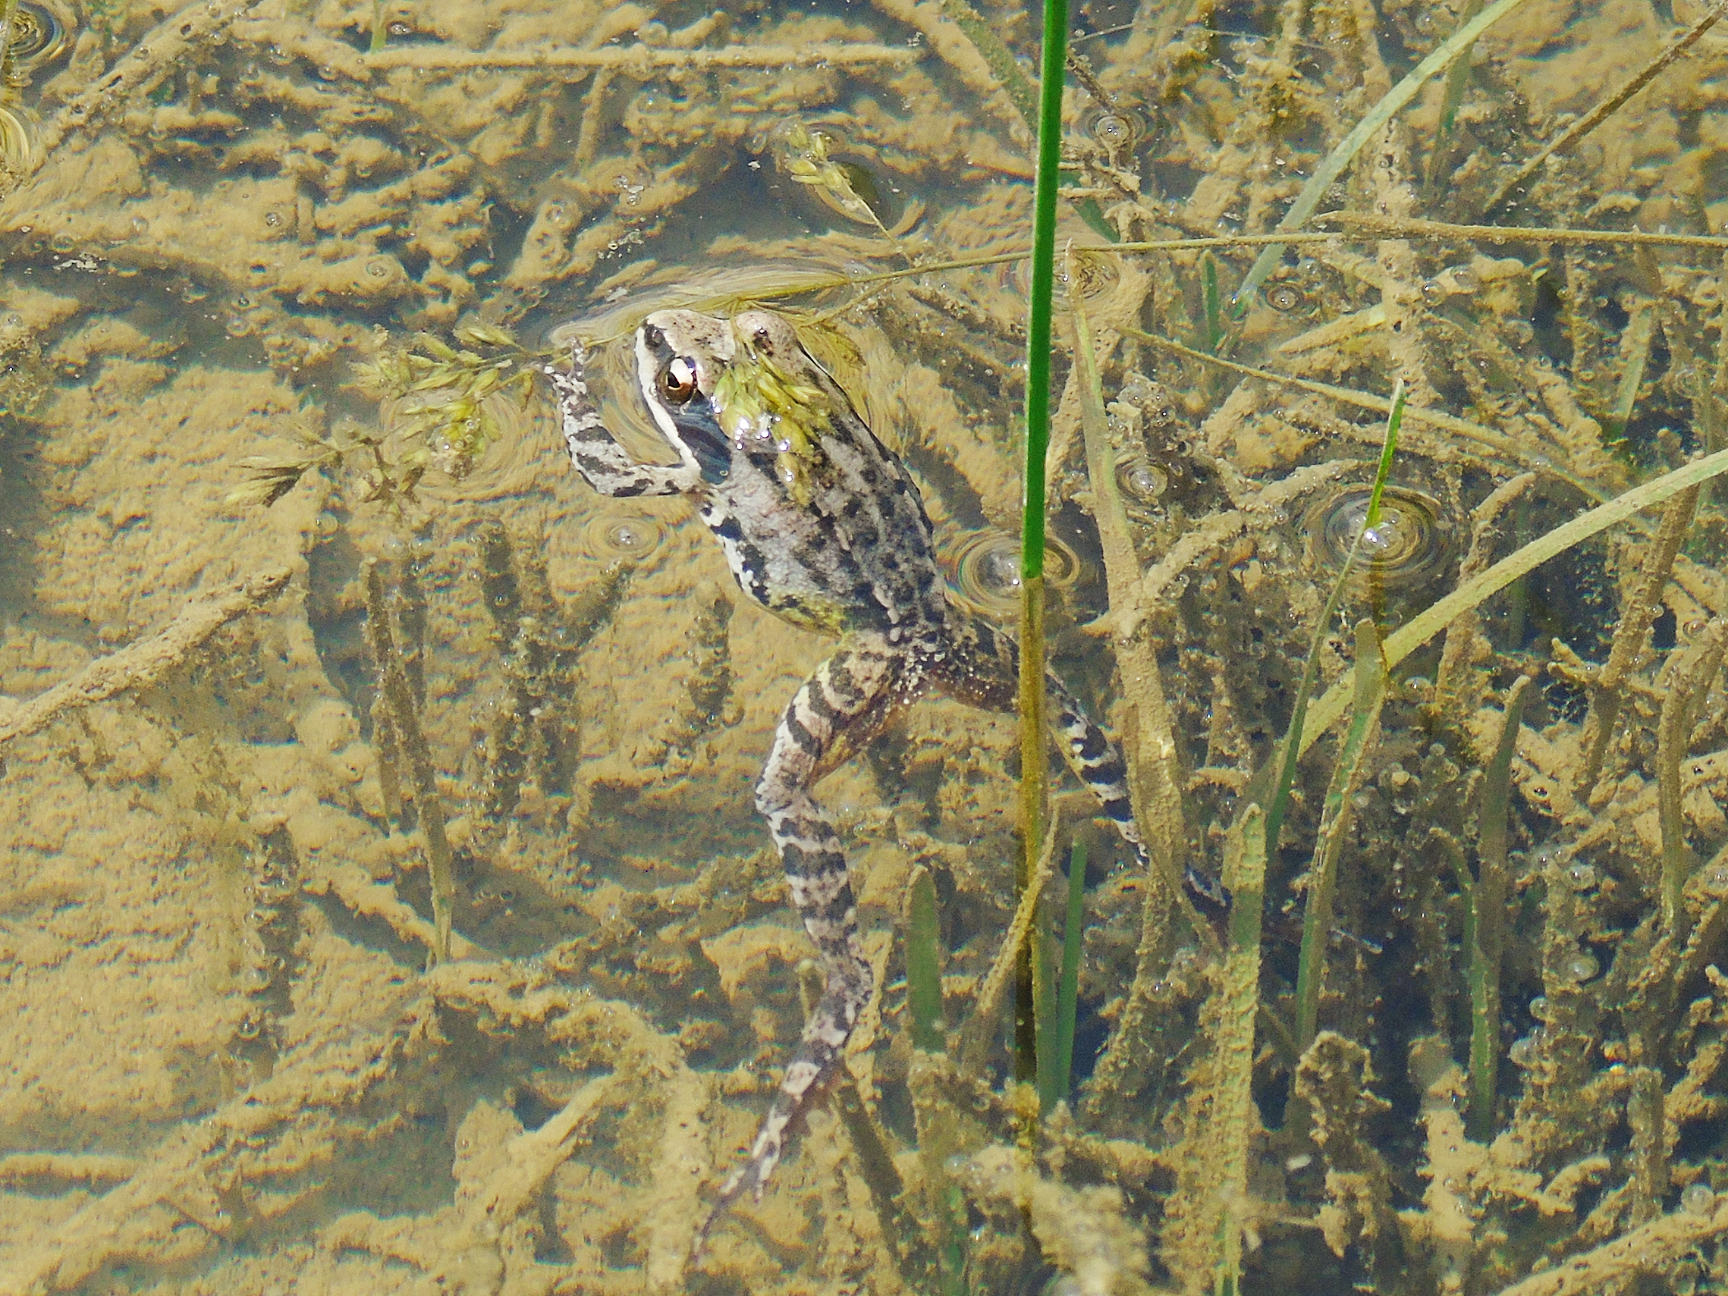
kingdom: Animalia
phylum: Chordata
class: Amphibia
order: Anura
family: Ranidae
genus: Rana
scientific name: Rana macrocnemis
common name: Banded frog
